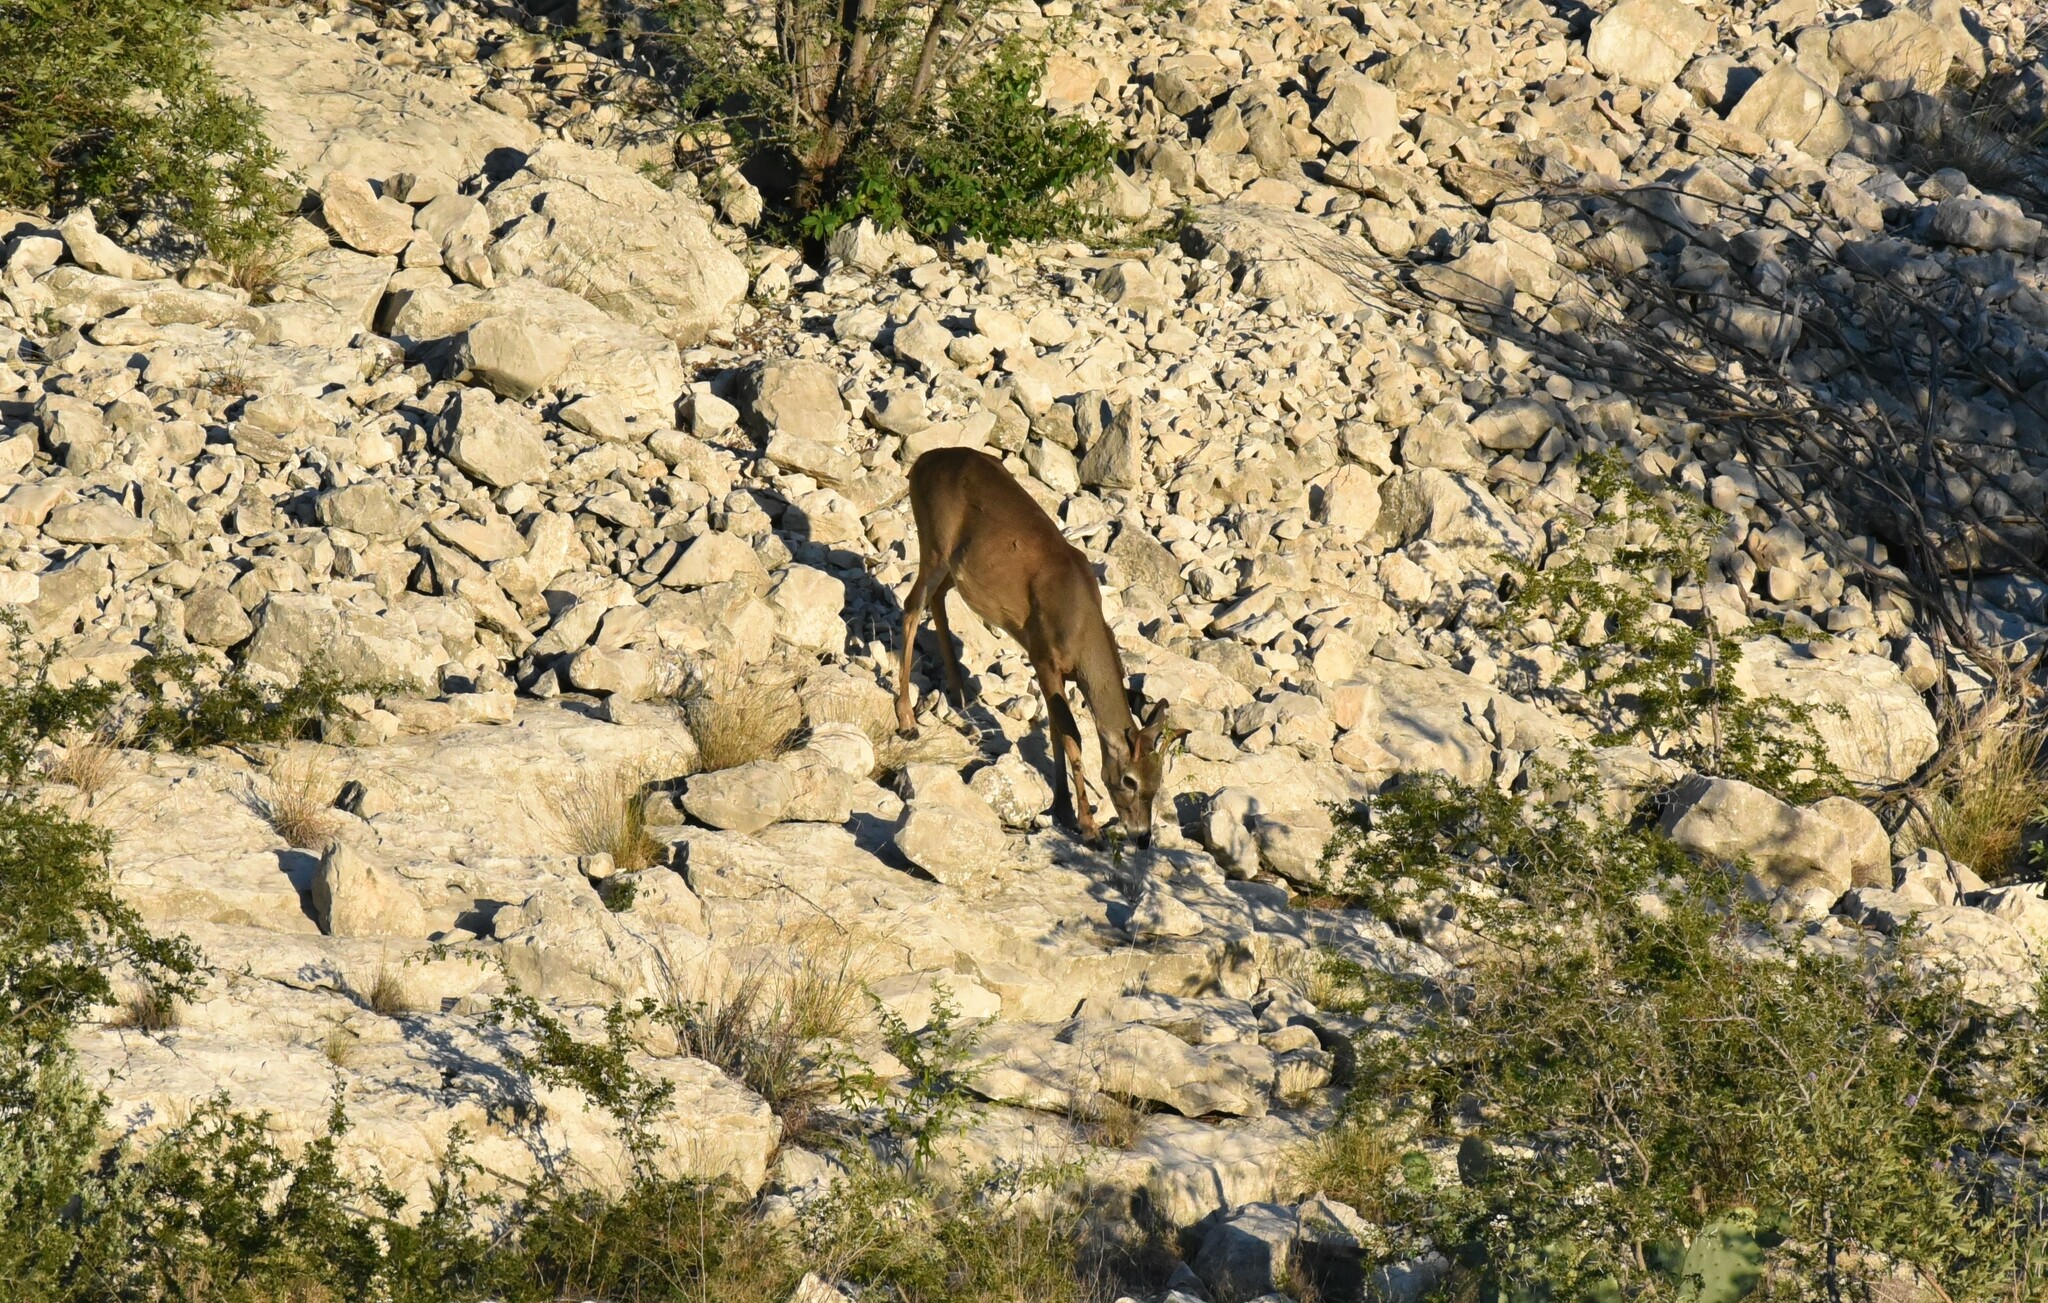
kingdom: Animalia
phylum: Chordata
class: Mammalia
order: Artiodactyla
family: Cervidae
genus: Odocoileus
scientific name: Odocoileus virginianus
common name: White-tailed deer
